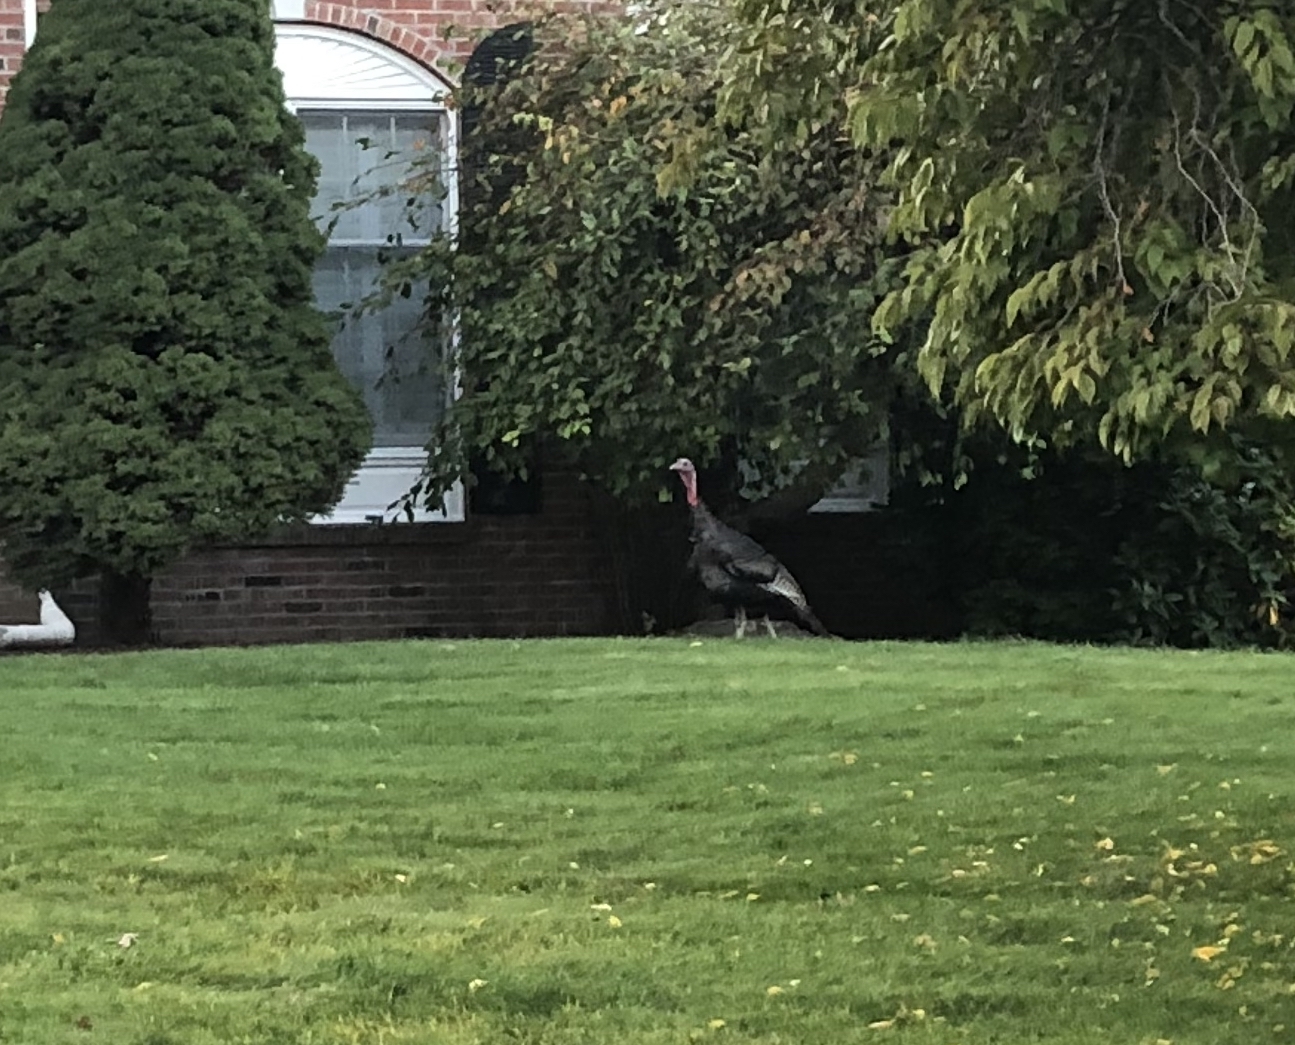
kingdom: Animalia
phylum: Chordata
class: Aves
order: Galliformes
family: Phasianidae
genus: Meleagris
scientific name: Meleagris gallopavo
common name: Wild turkey
